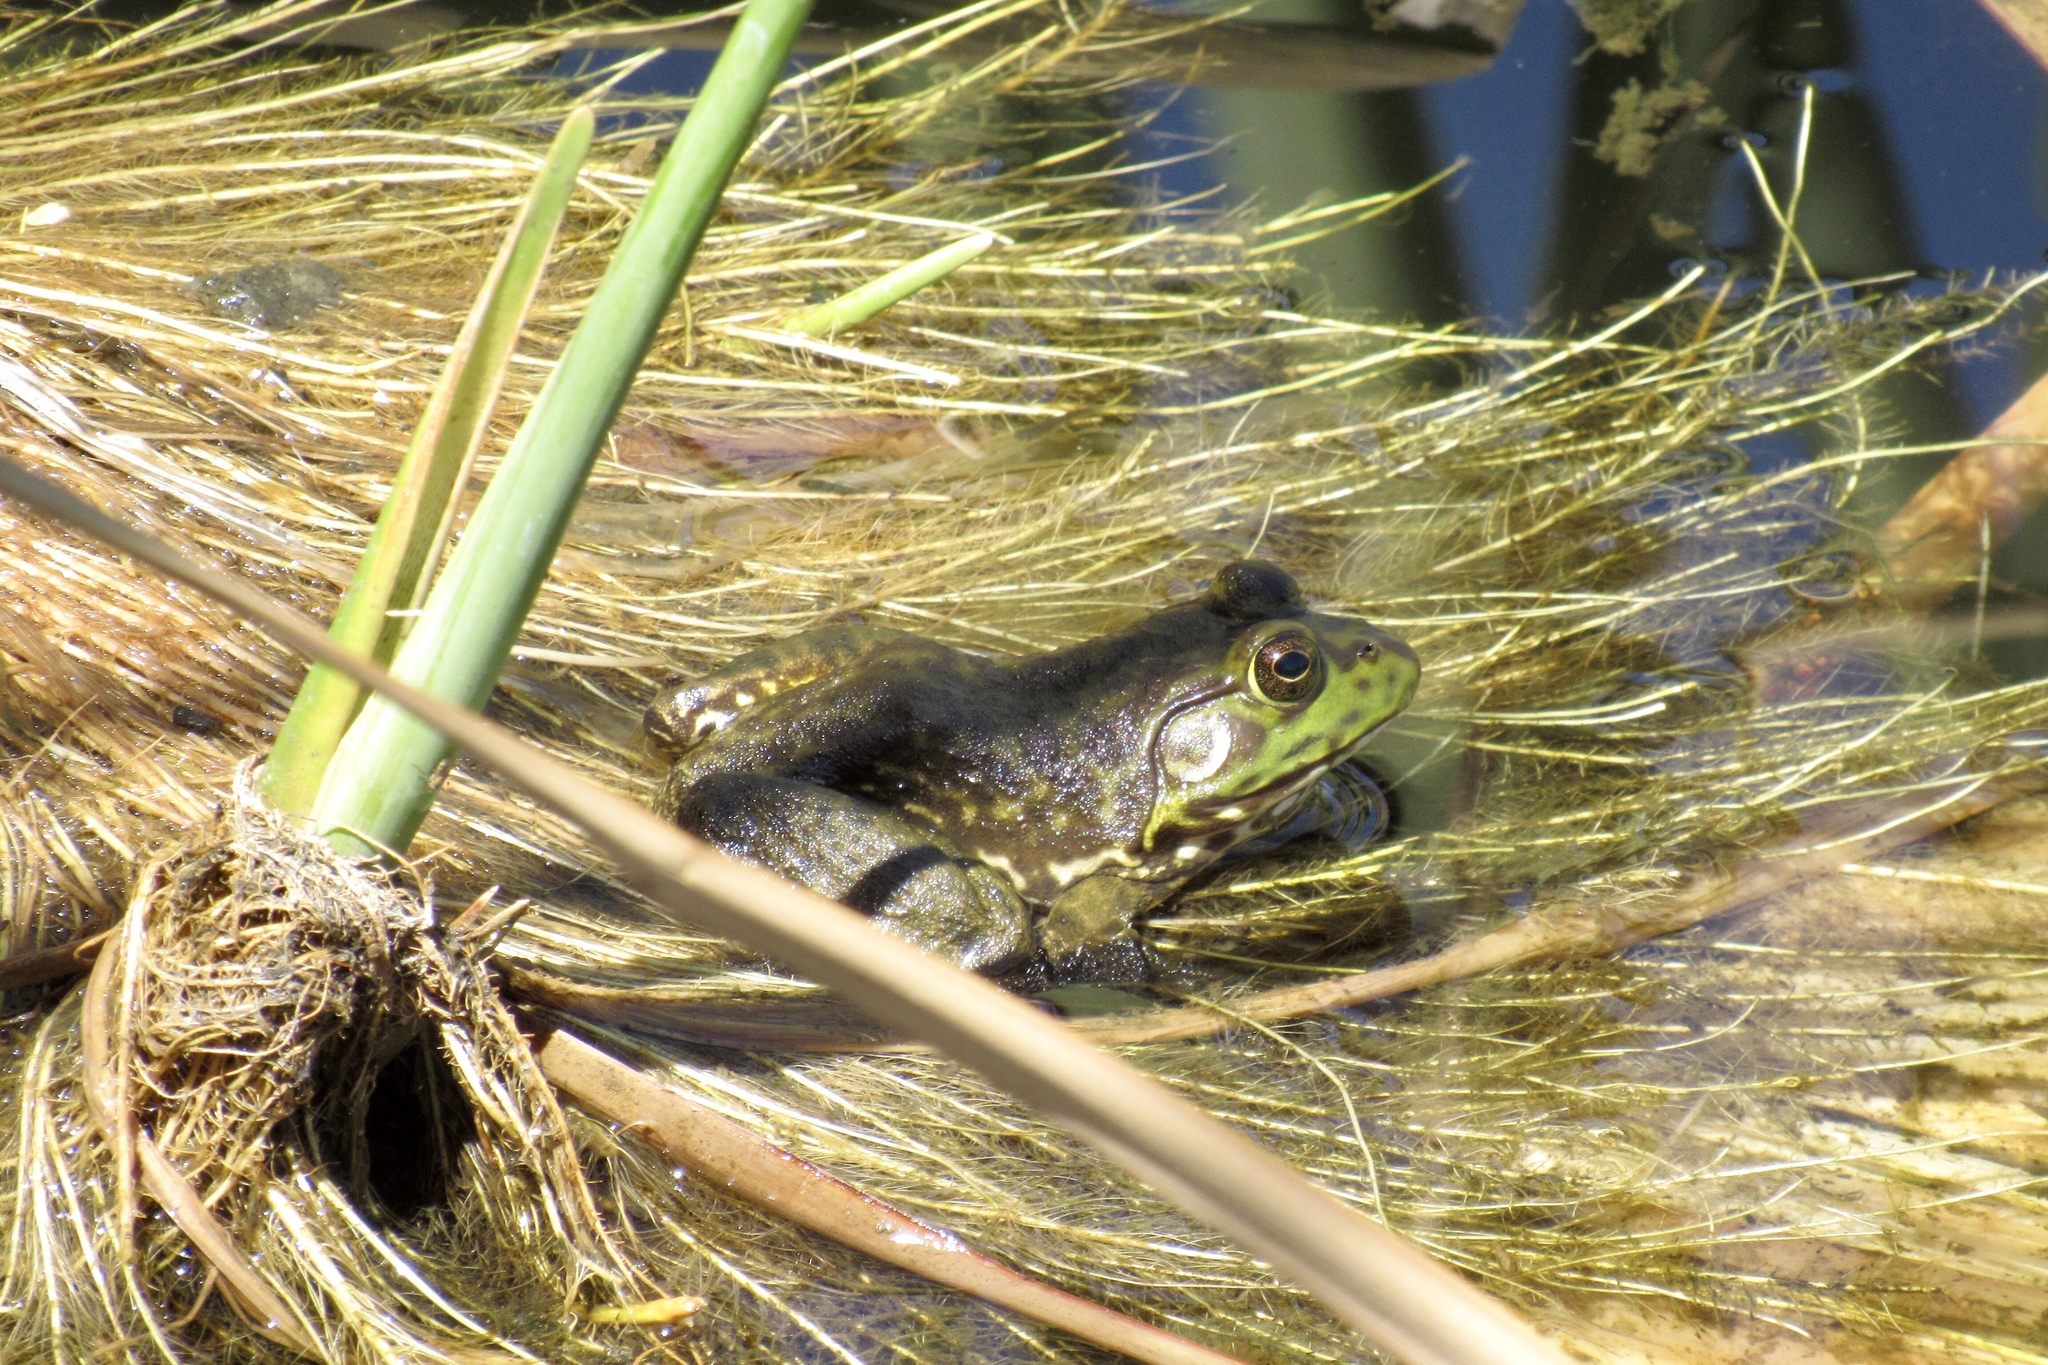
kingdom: Animalia
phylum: Chordata
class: Amphibia
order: Anura
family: Ranidae
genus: Lithobates
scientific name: Lithobates catesbeianus
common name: American bullfrog
